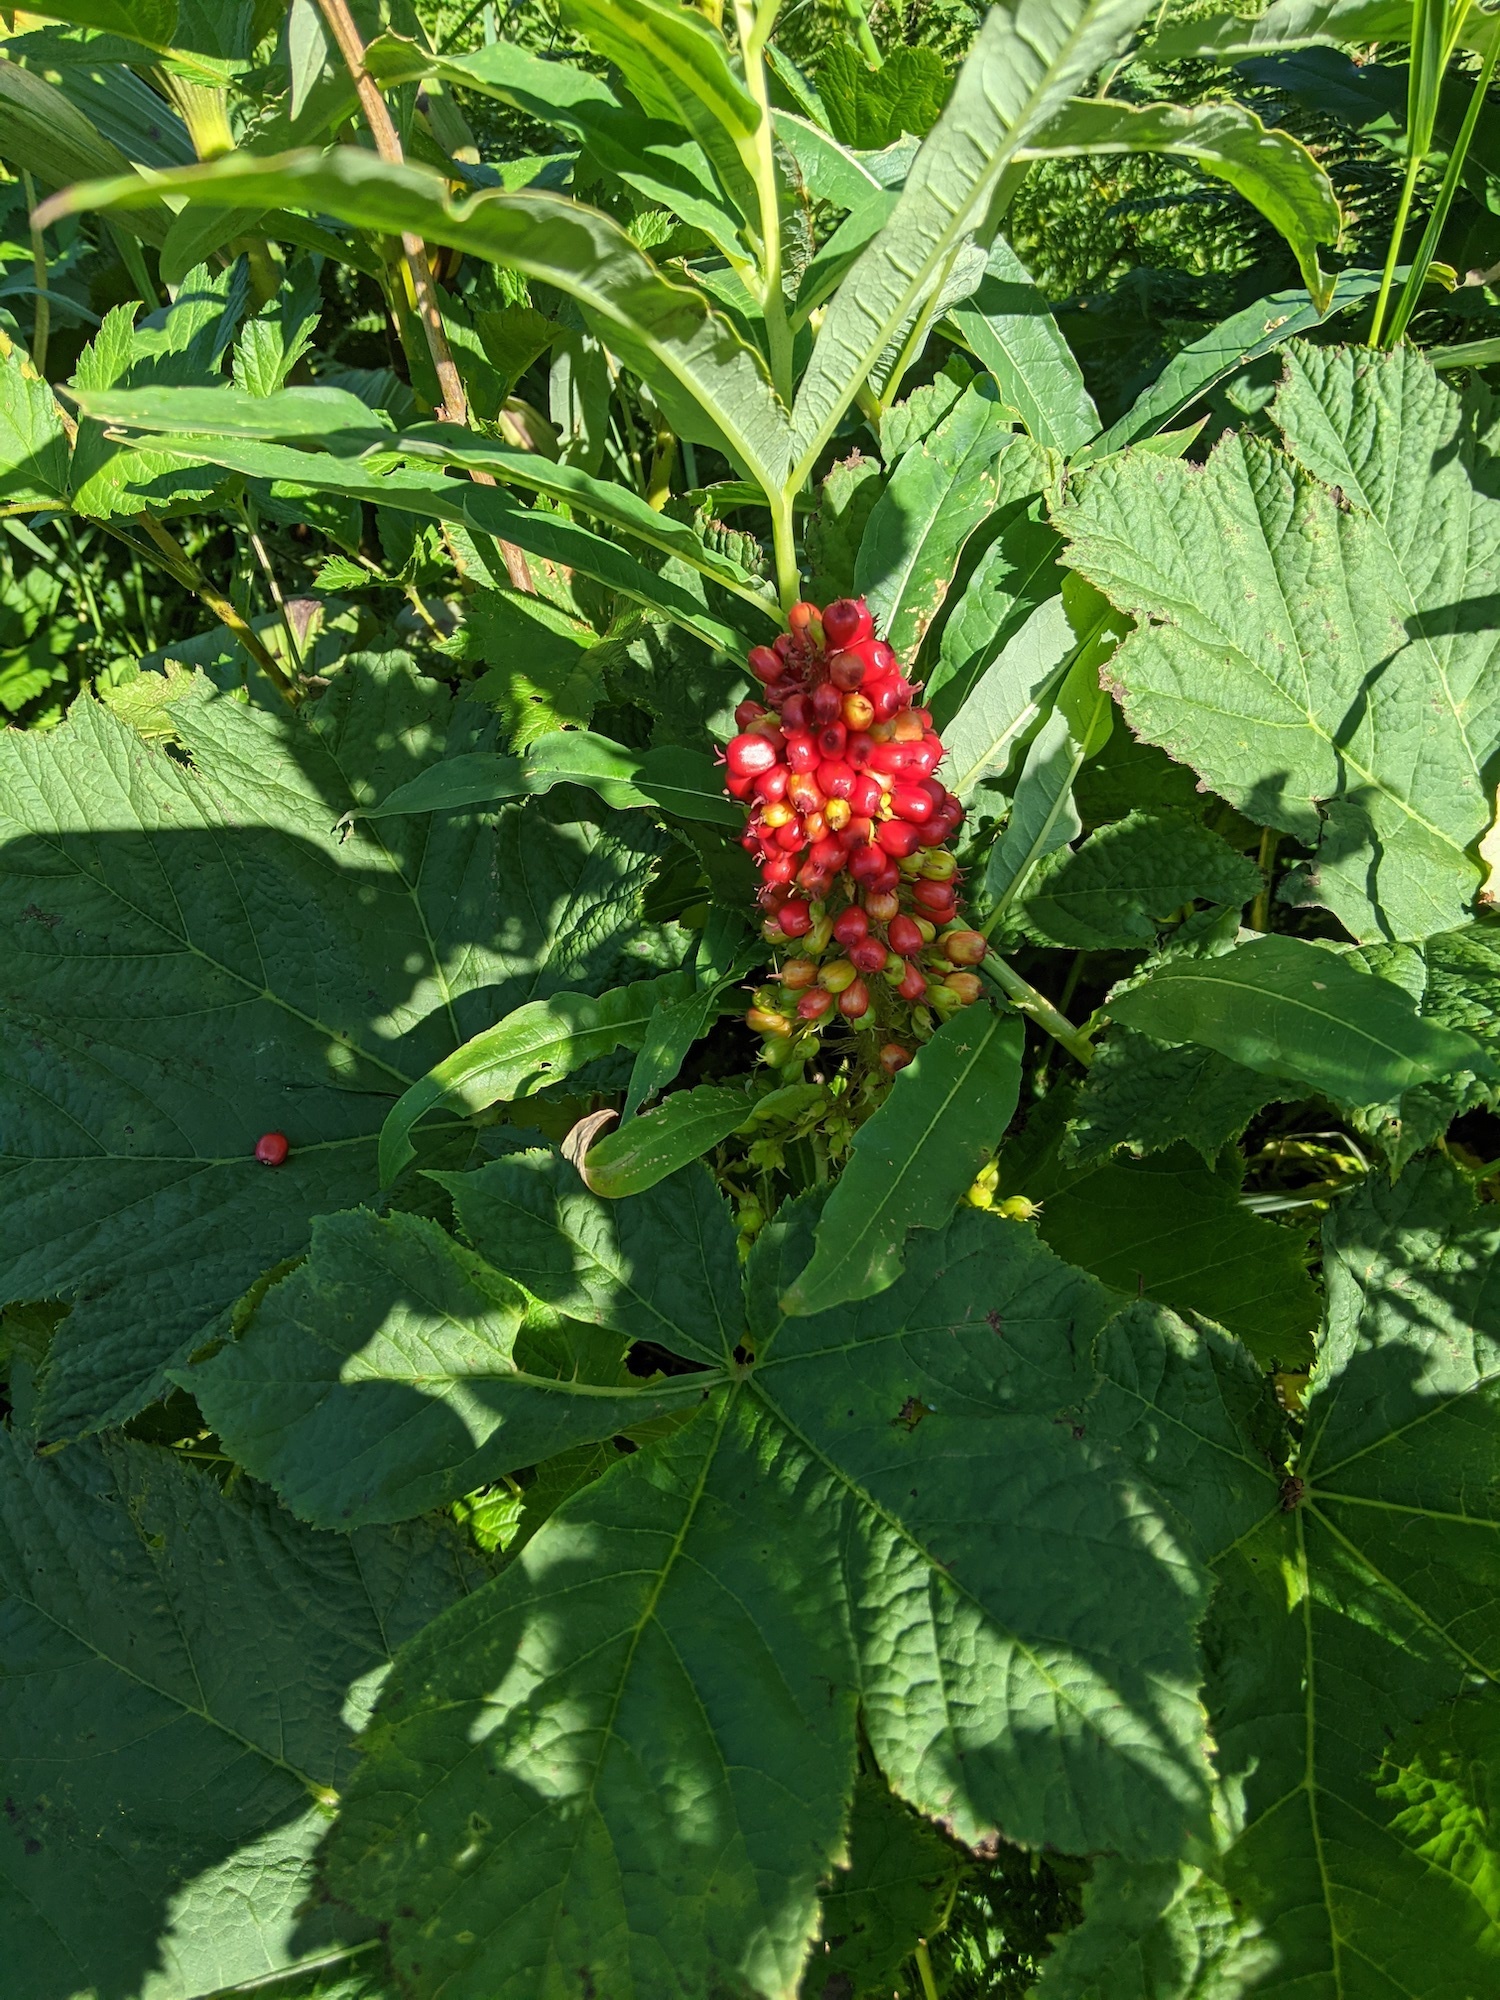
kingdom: Plantae
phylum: Tracheophyta
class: Magnoliopsida
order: Apiales
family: Araliaceae
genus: Oplopanax
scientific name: Oplopanax horridus
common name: Devil's walking-stick
